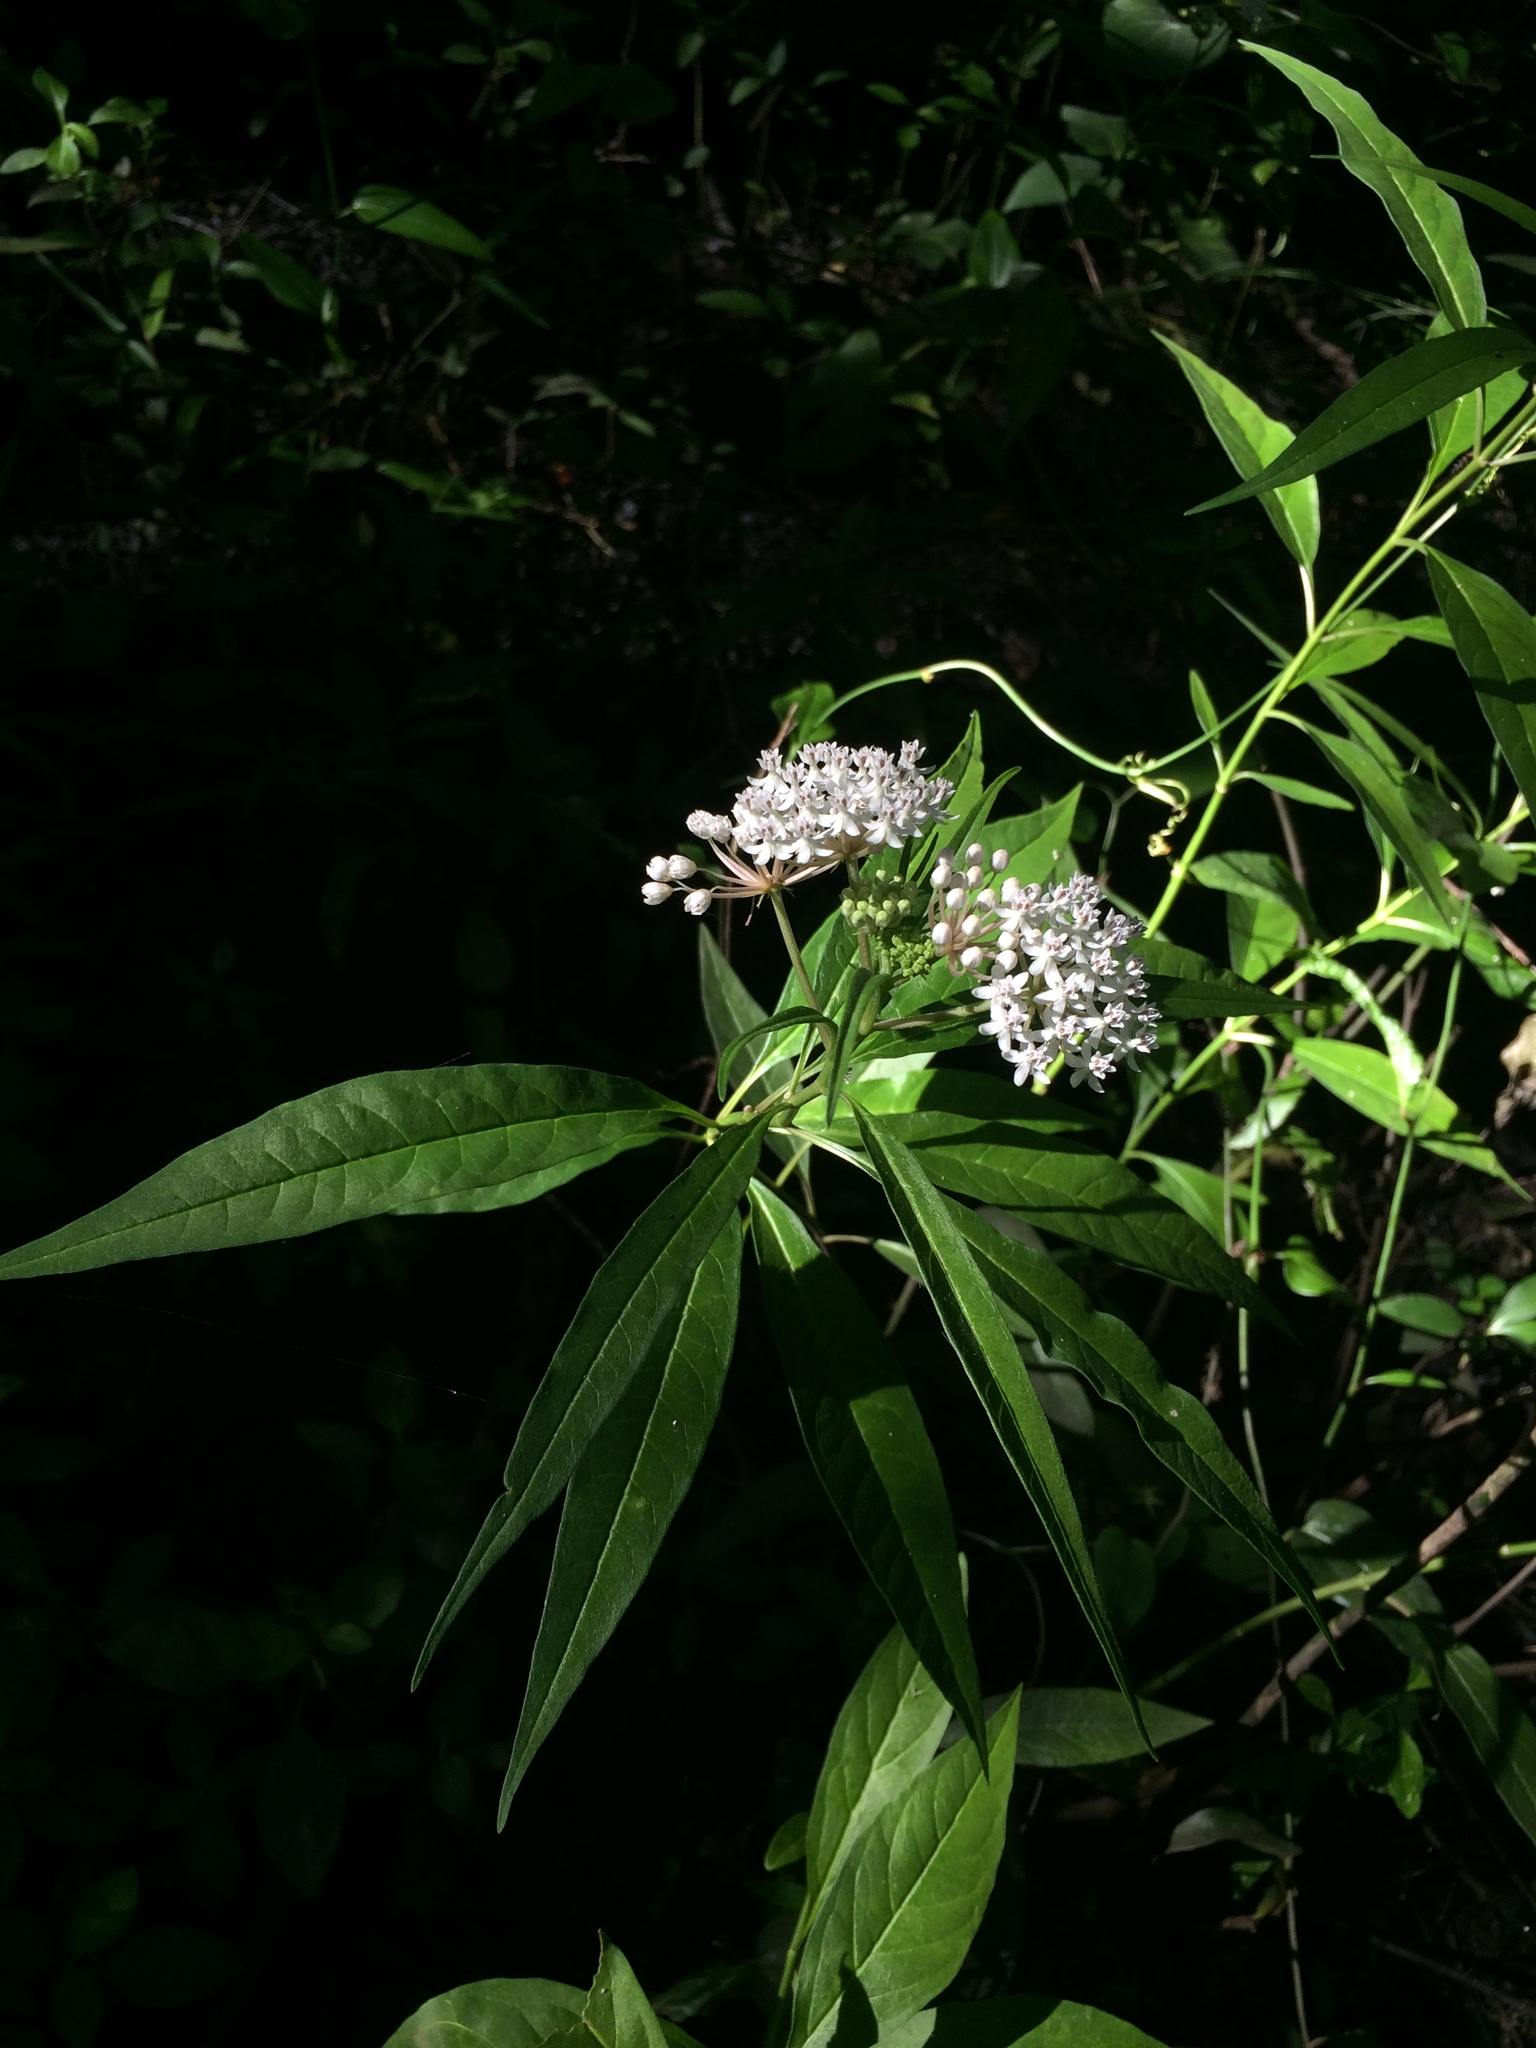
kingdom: Plantae
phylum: Tracheophyta
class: Magnoliopsida
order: Gentianales
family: Apocynaceae
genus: Asclepias
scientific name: Asclepias perennis
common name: Smooth-seed milkweed
